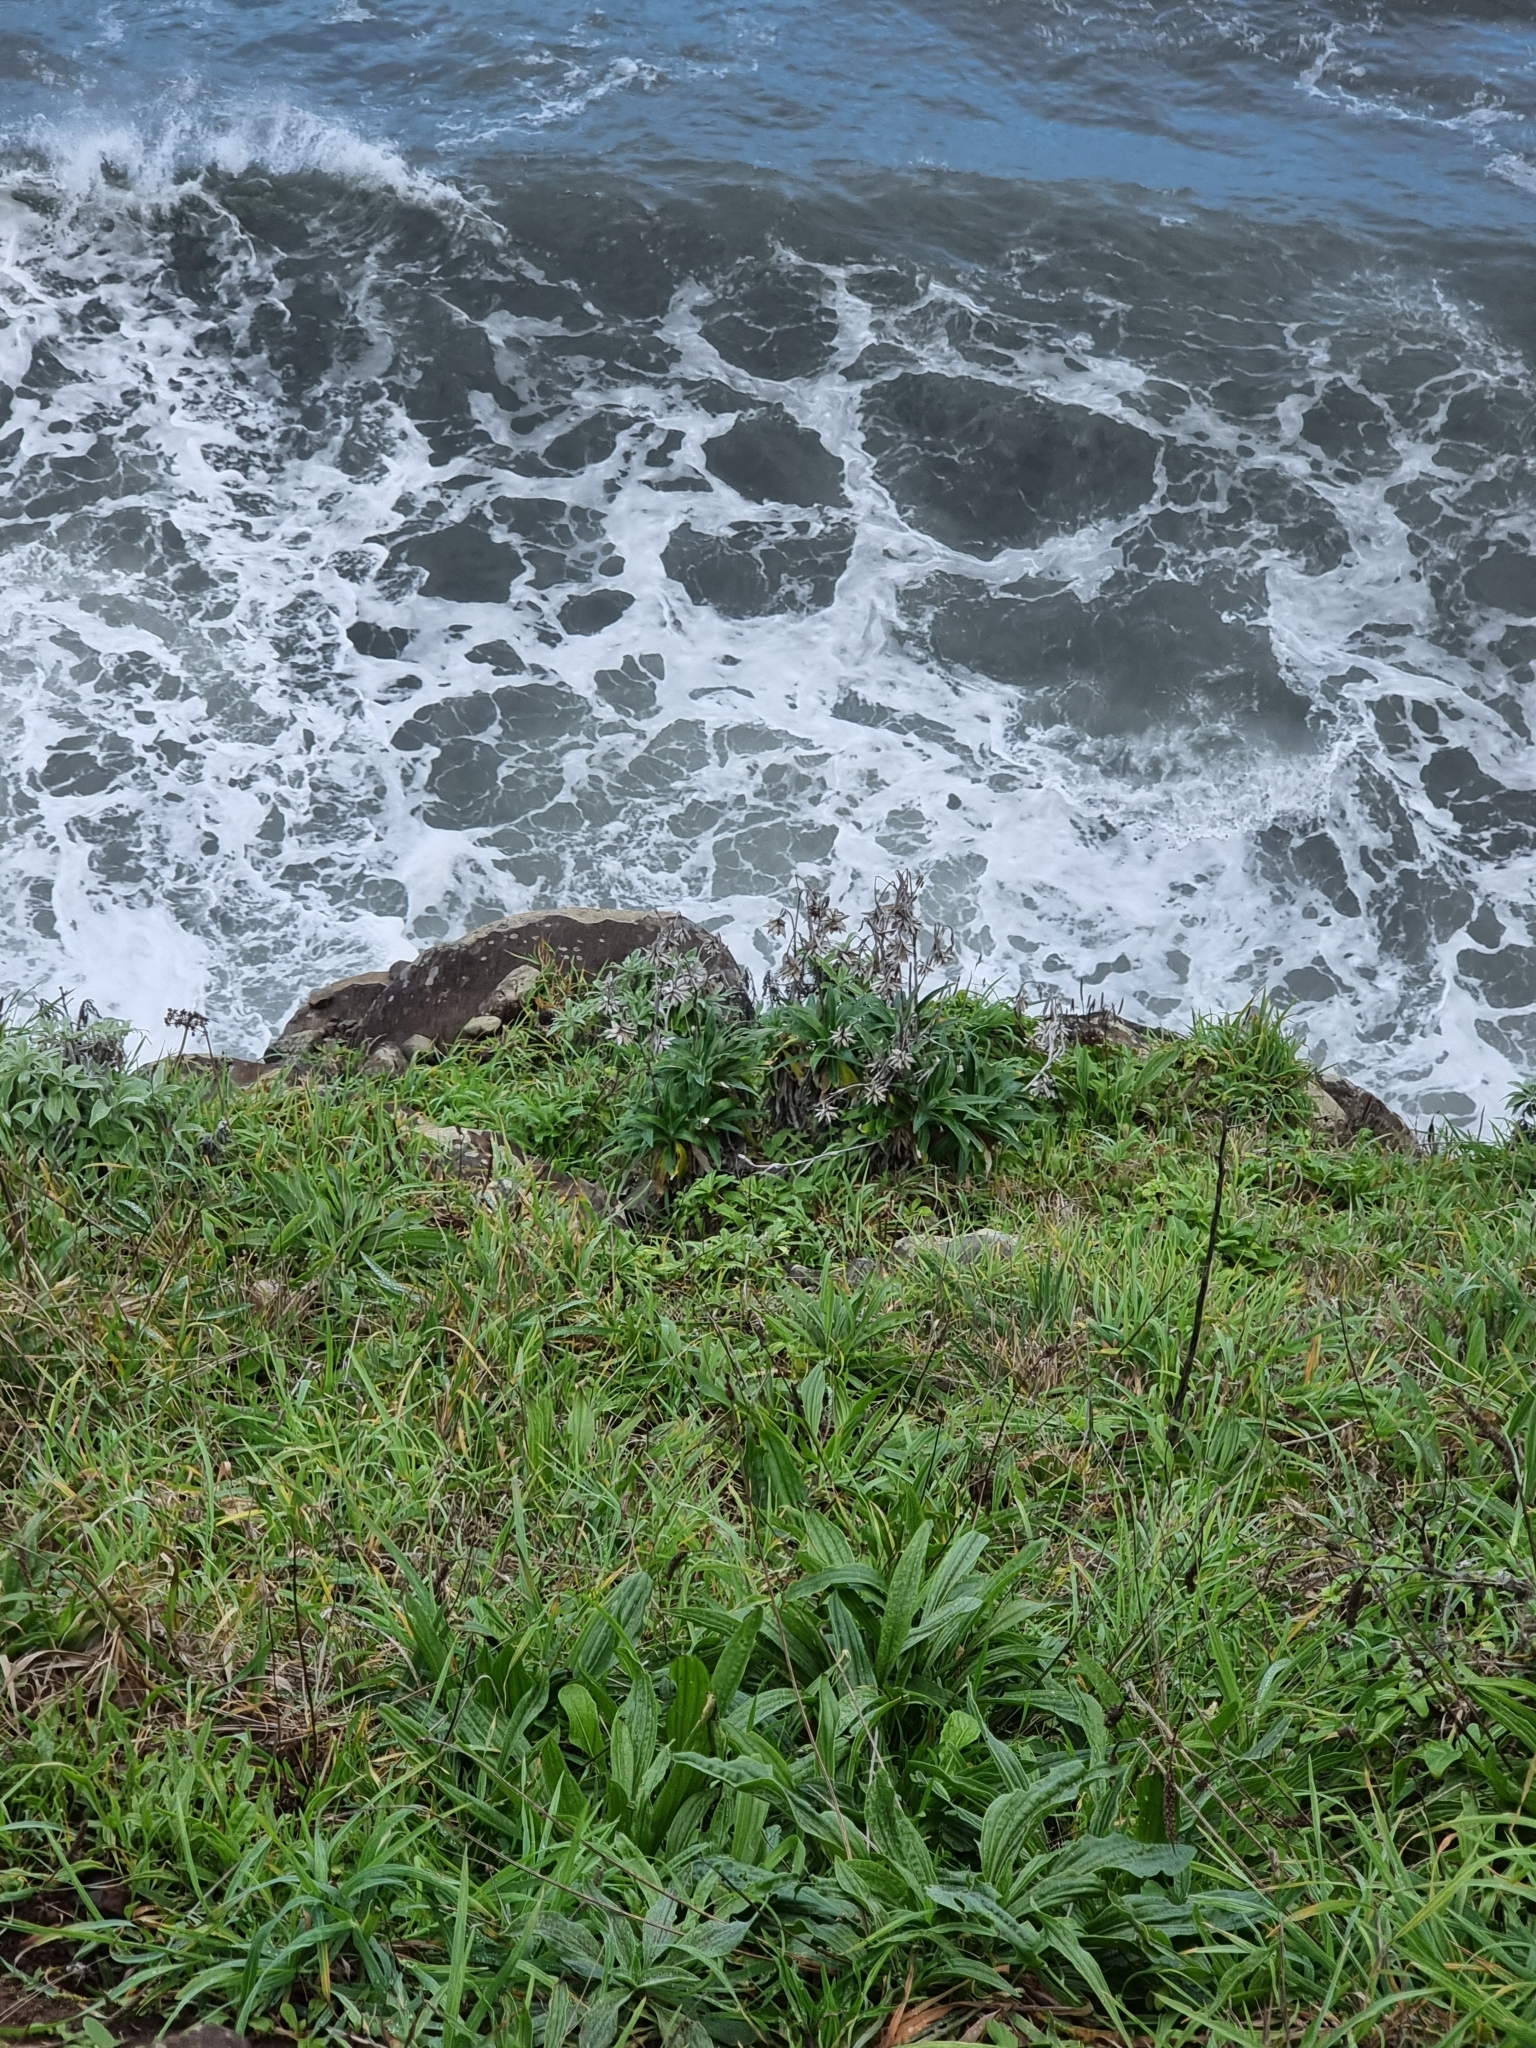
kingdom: Plantae
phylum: Tracheophyta
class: Magnoliopsida
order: Asterales
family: Asteraceae
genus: Carlina
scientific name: Carlina salicifolia
